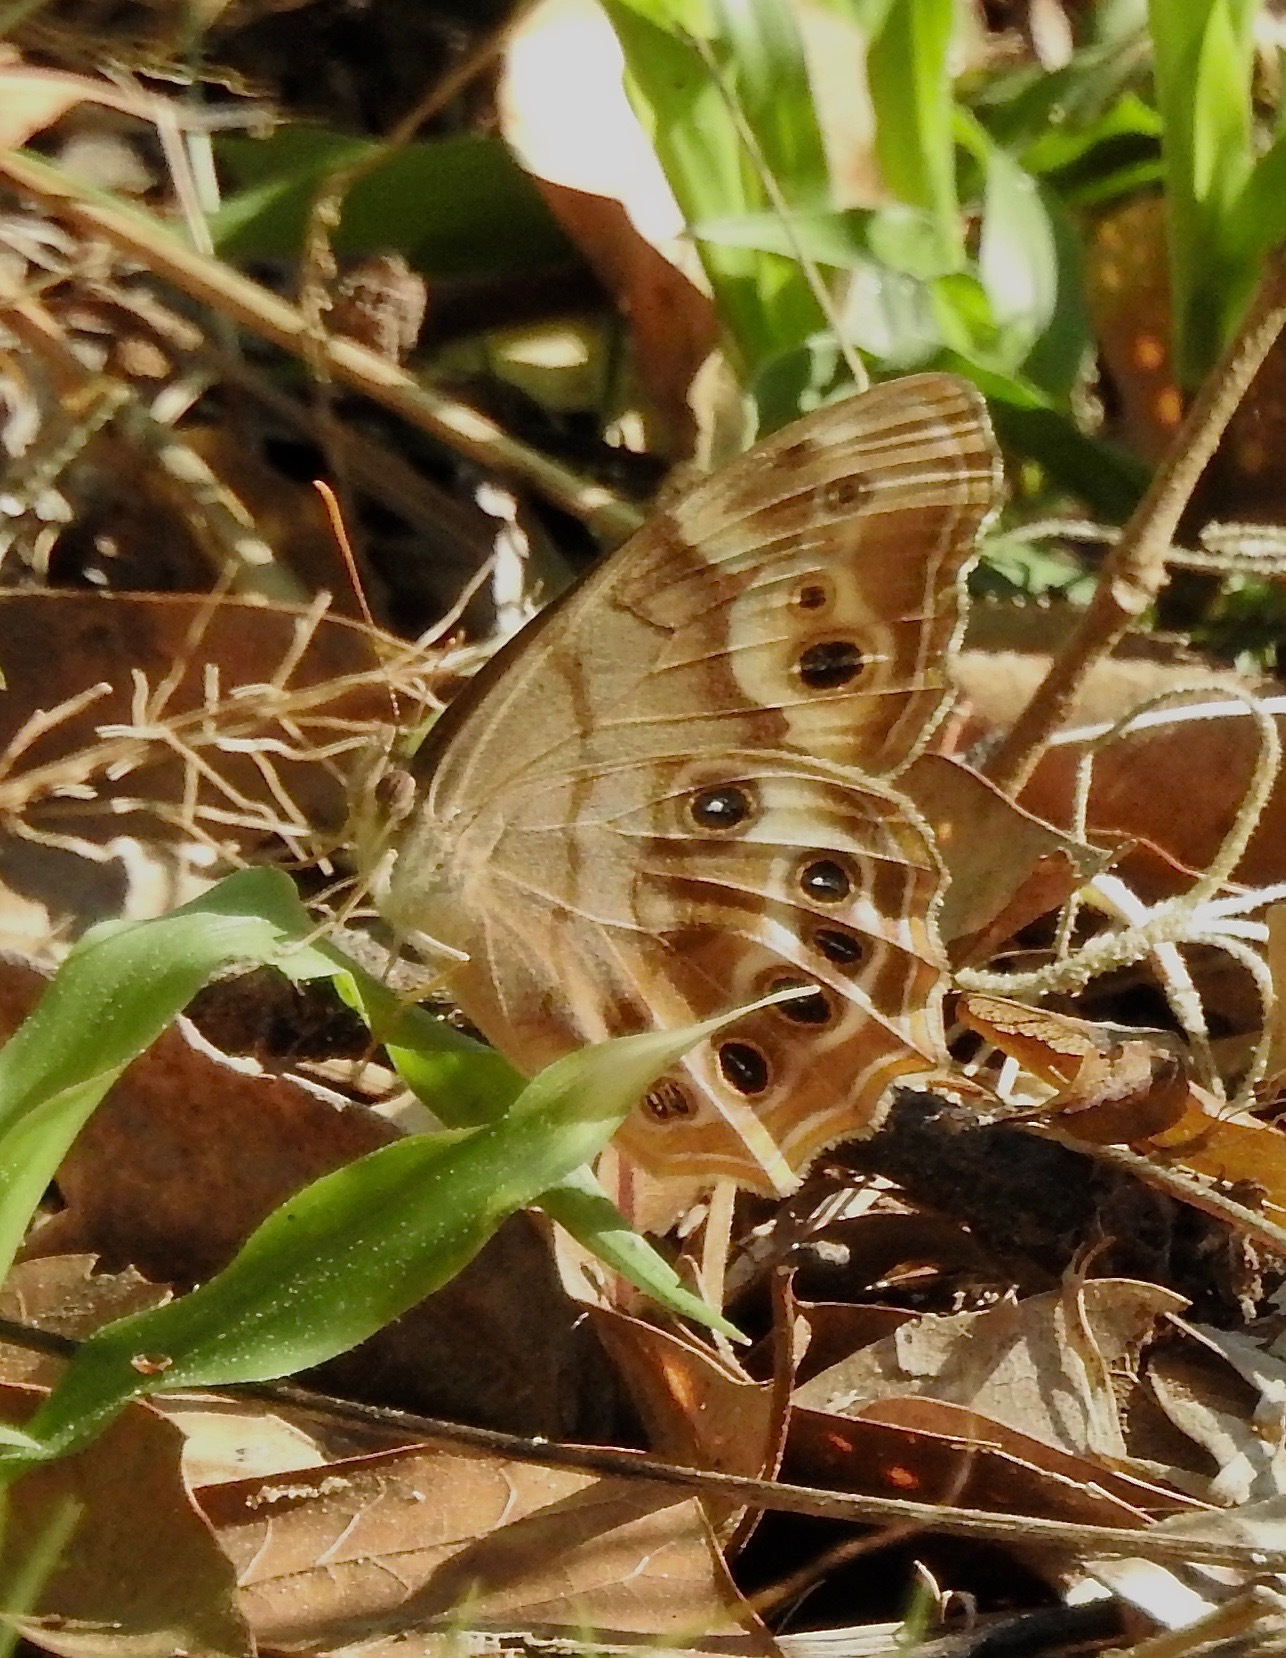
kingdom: Animalia
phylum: Arthropoda
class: Insecta
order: Lepidoptera
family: Nymphalidae
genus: Enodia
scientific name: Enodia portlandia
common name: Southern pearly-eye
